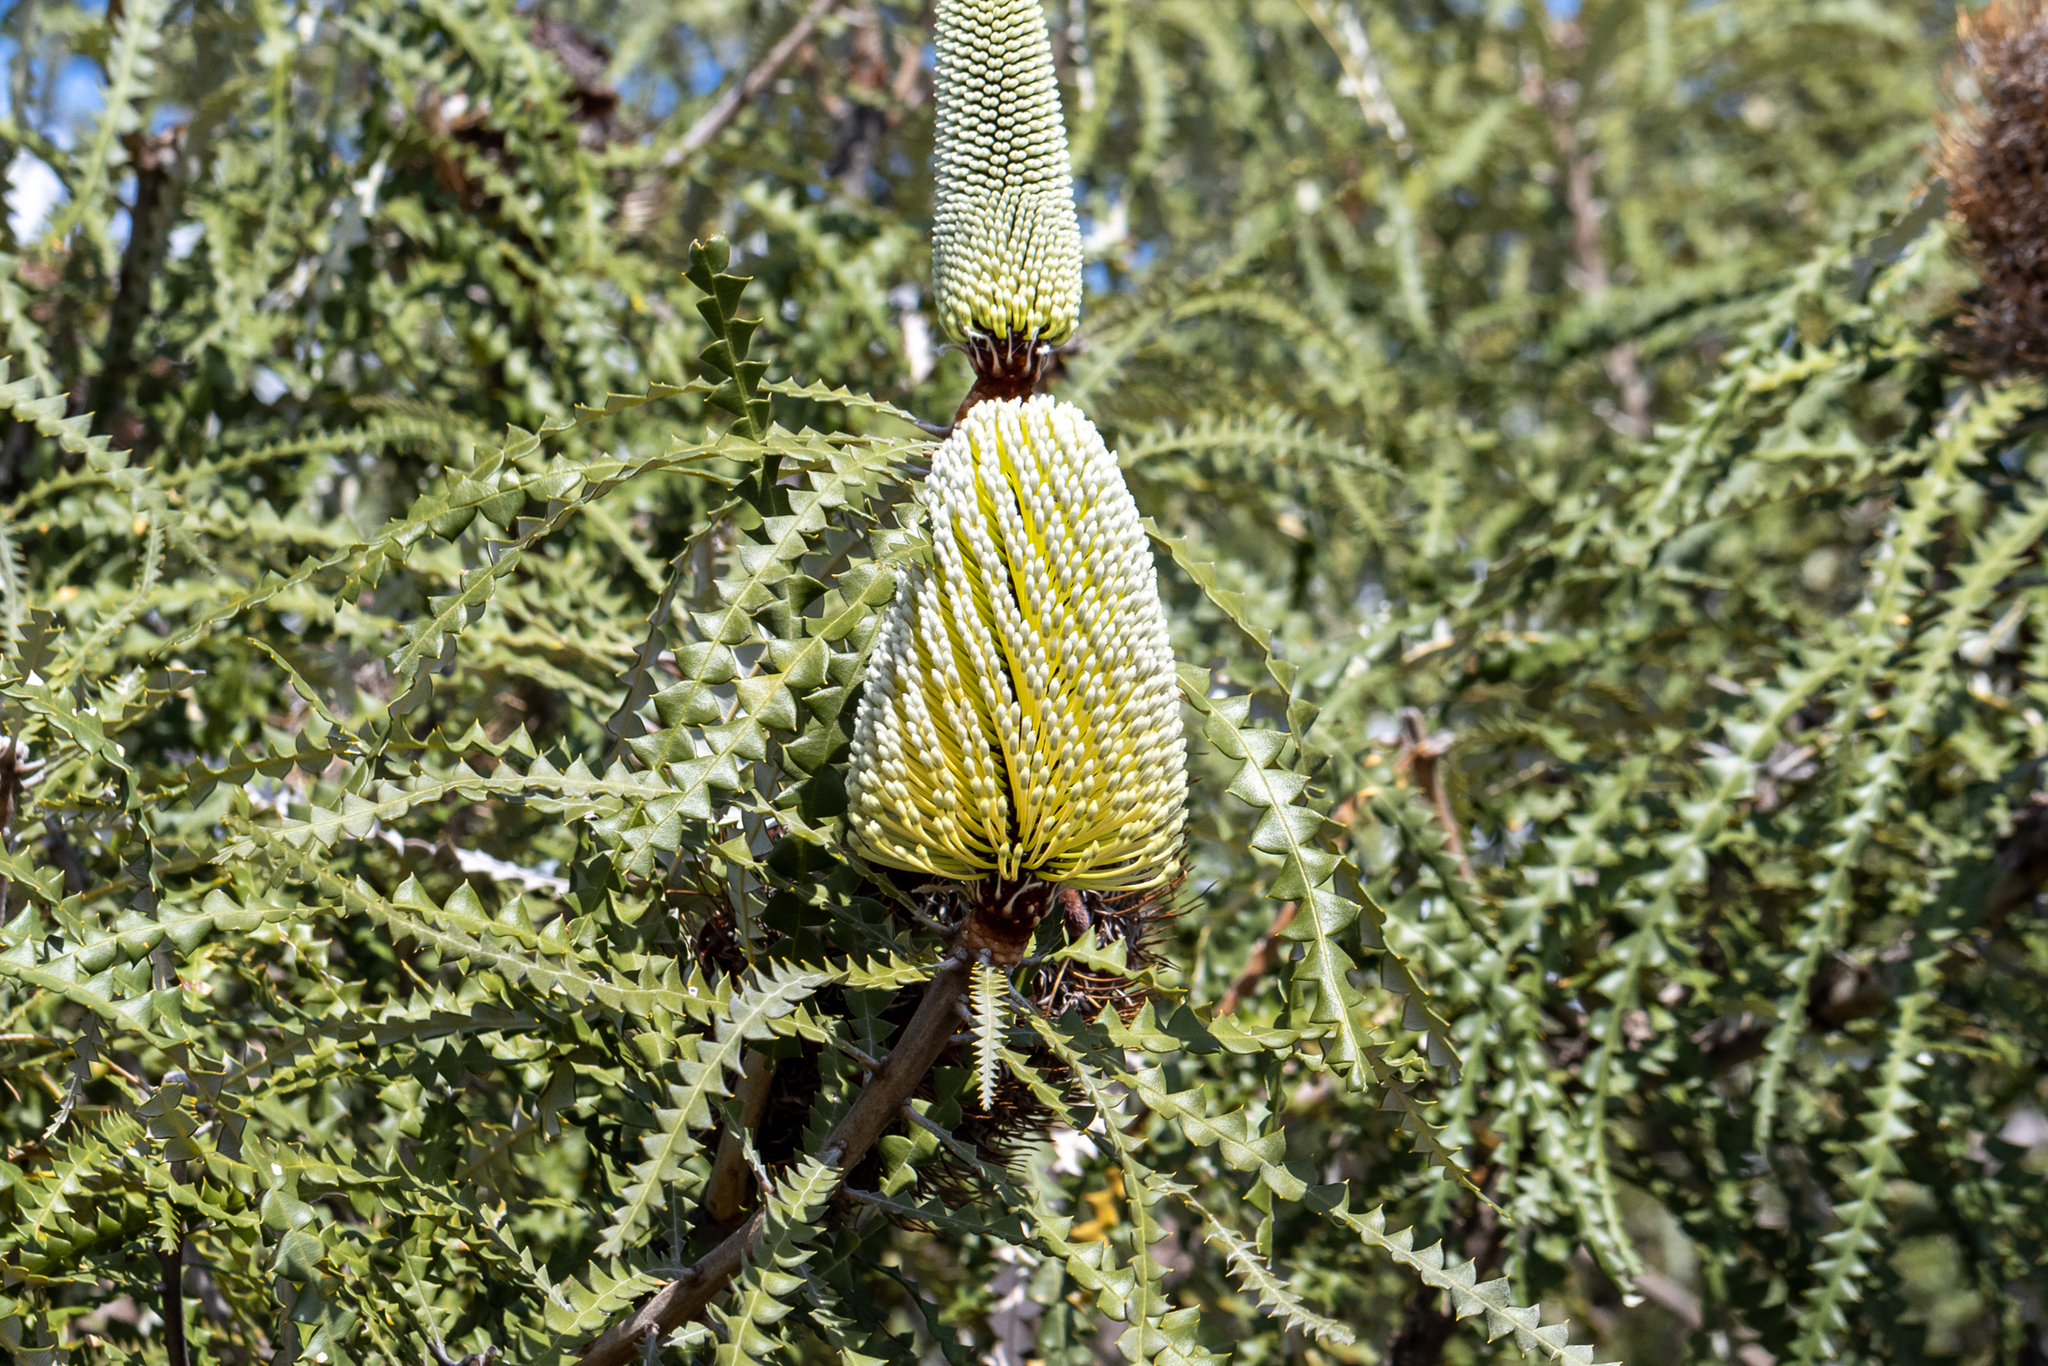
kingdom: Plantae
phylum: Tracheophyta
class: Magnoliopsida
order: Proteales
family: Proteaceae
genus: Banksia
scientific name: Banksia speciosa
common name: Showy banksia
